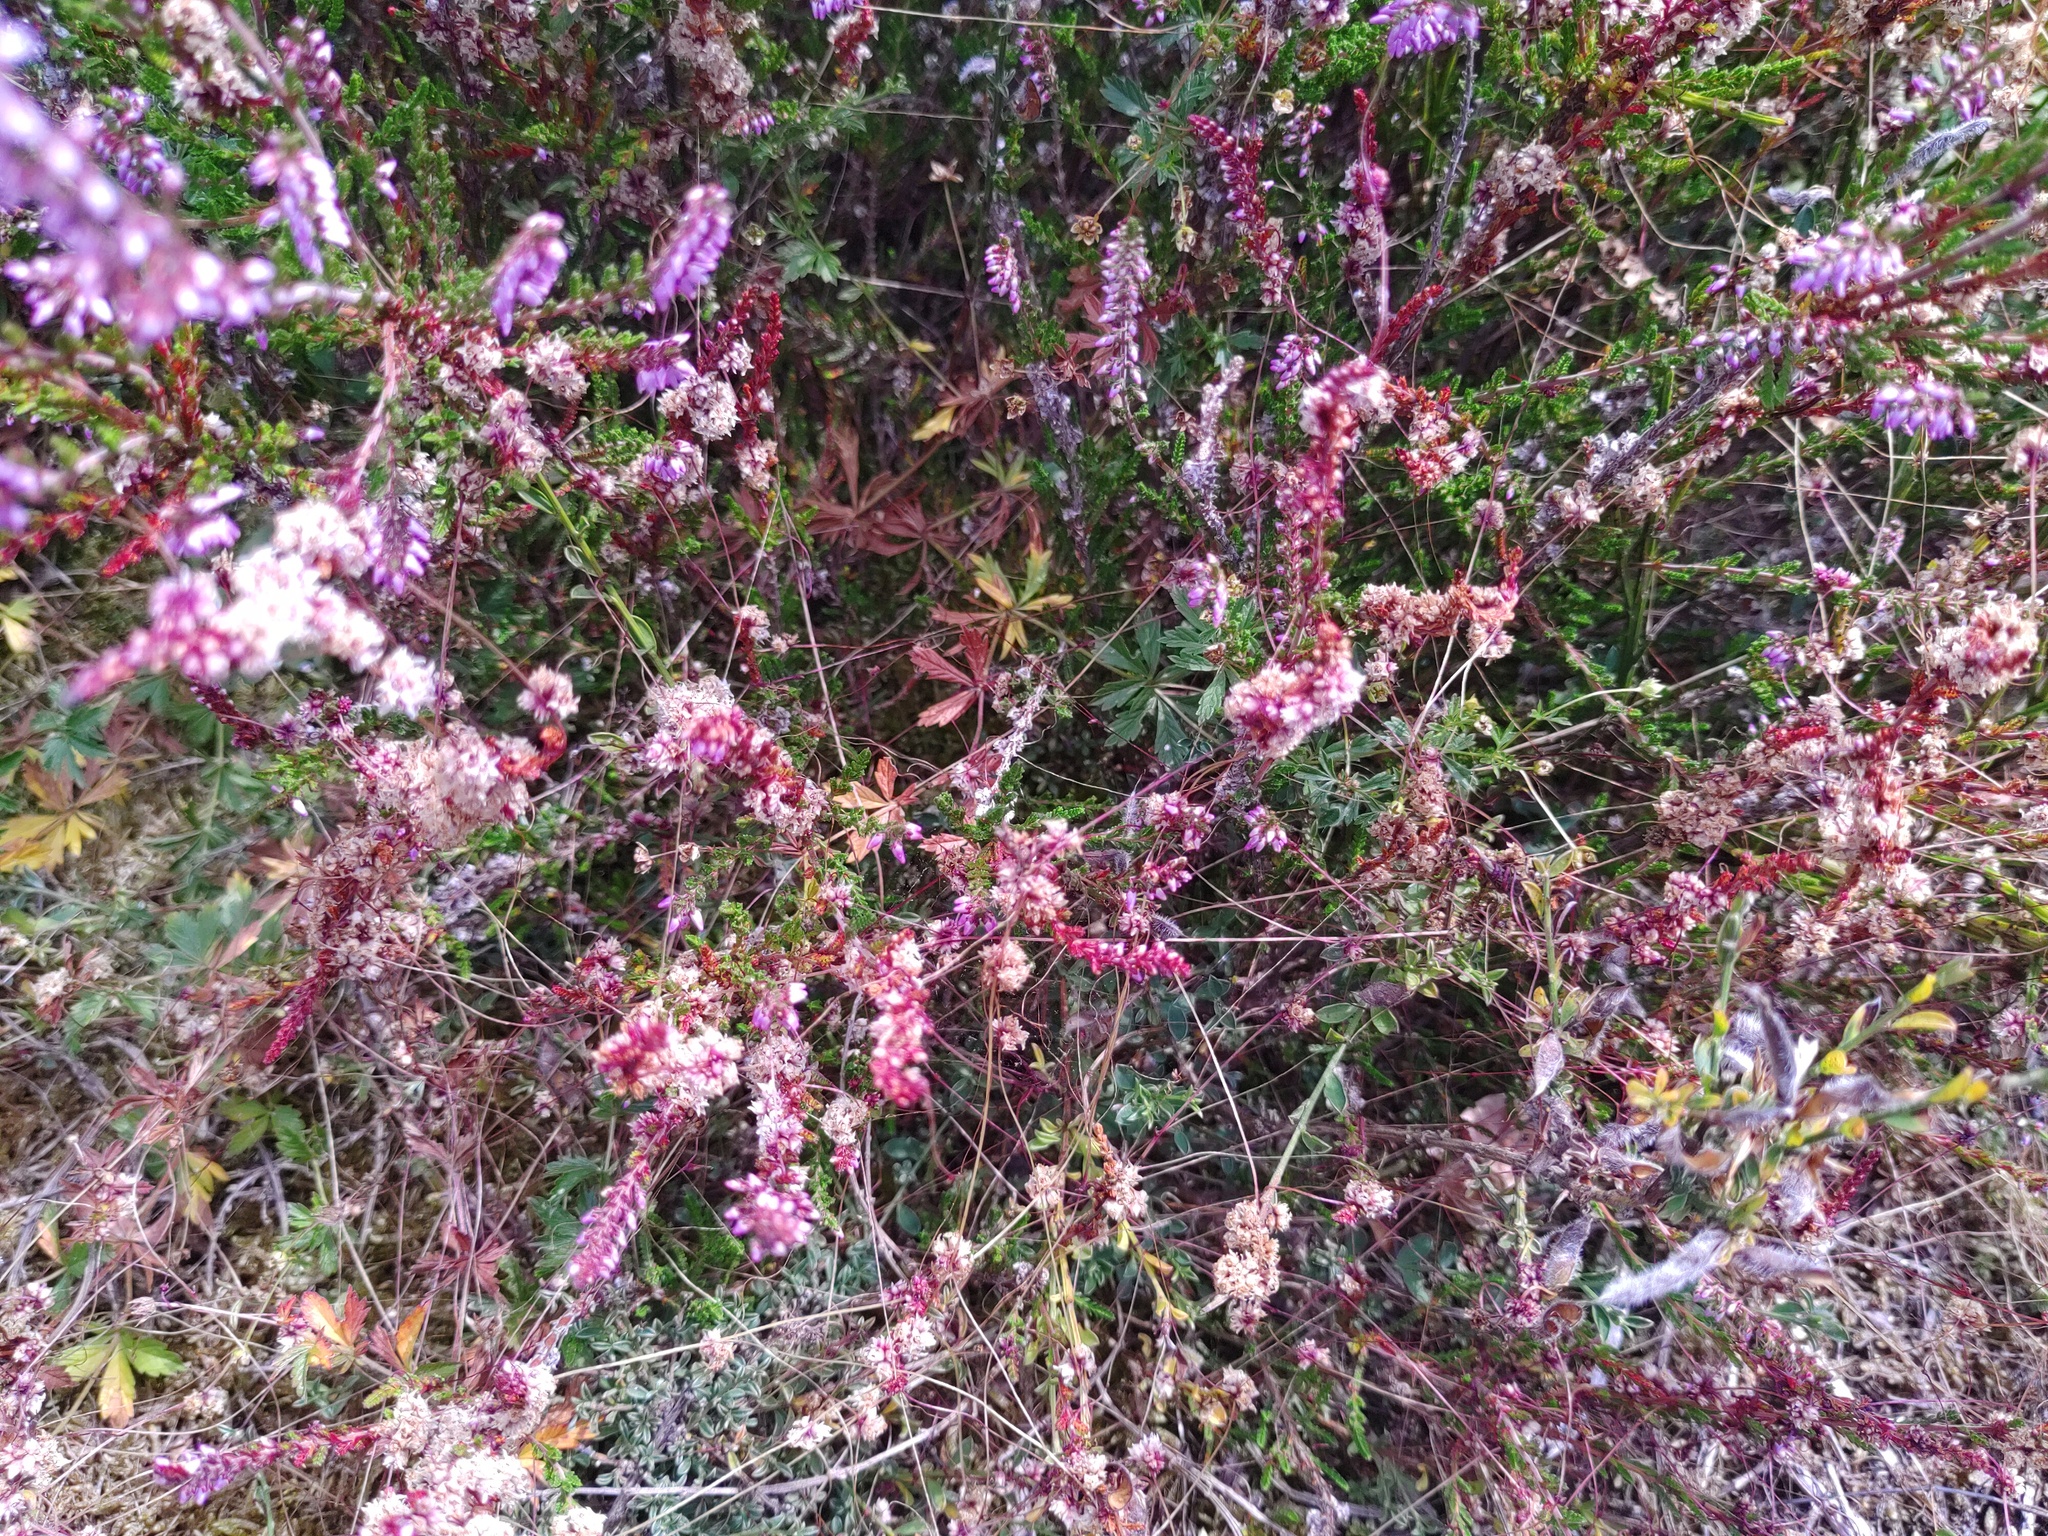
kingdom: Plantae
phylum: Tracheophyta
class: Magnoliopsida
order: Solanales
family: Convolvulaceae
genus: Cuscuta
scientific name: Cuscuta epithymum
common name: Clover dodder
